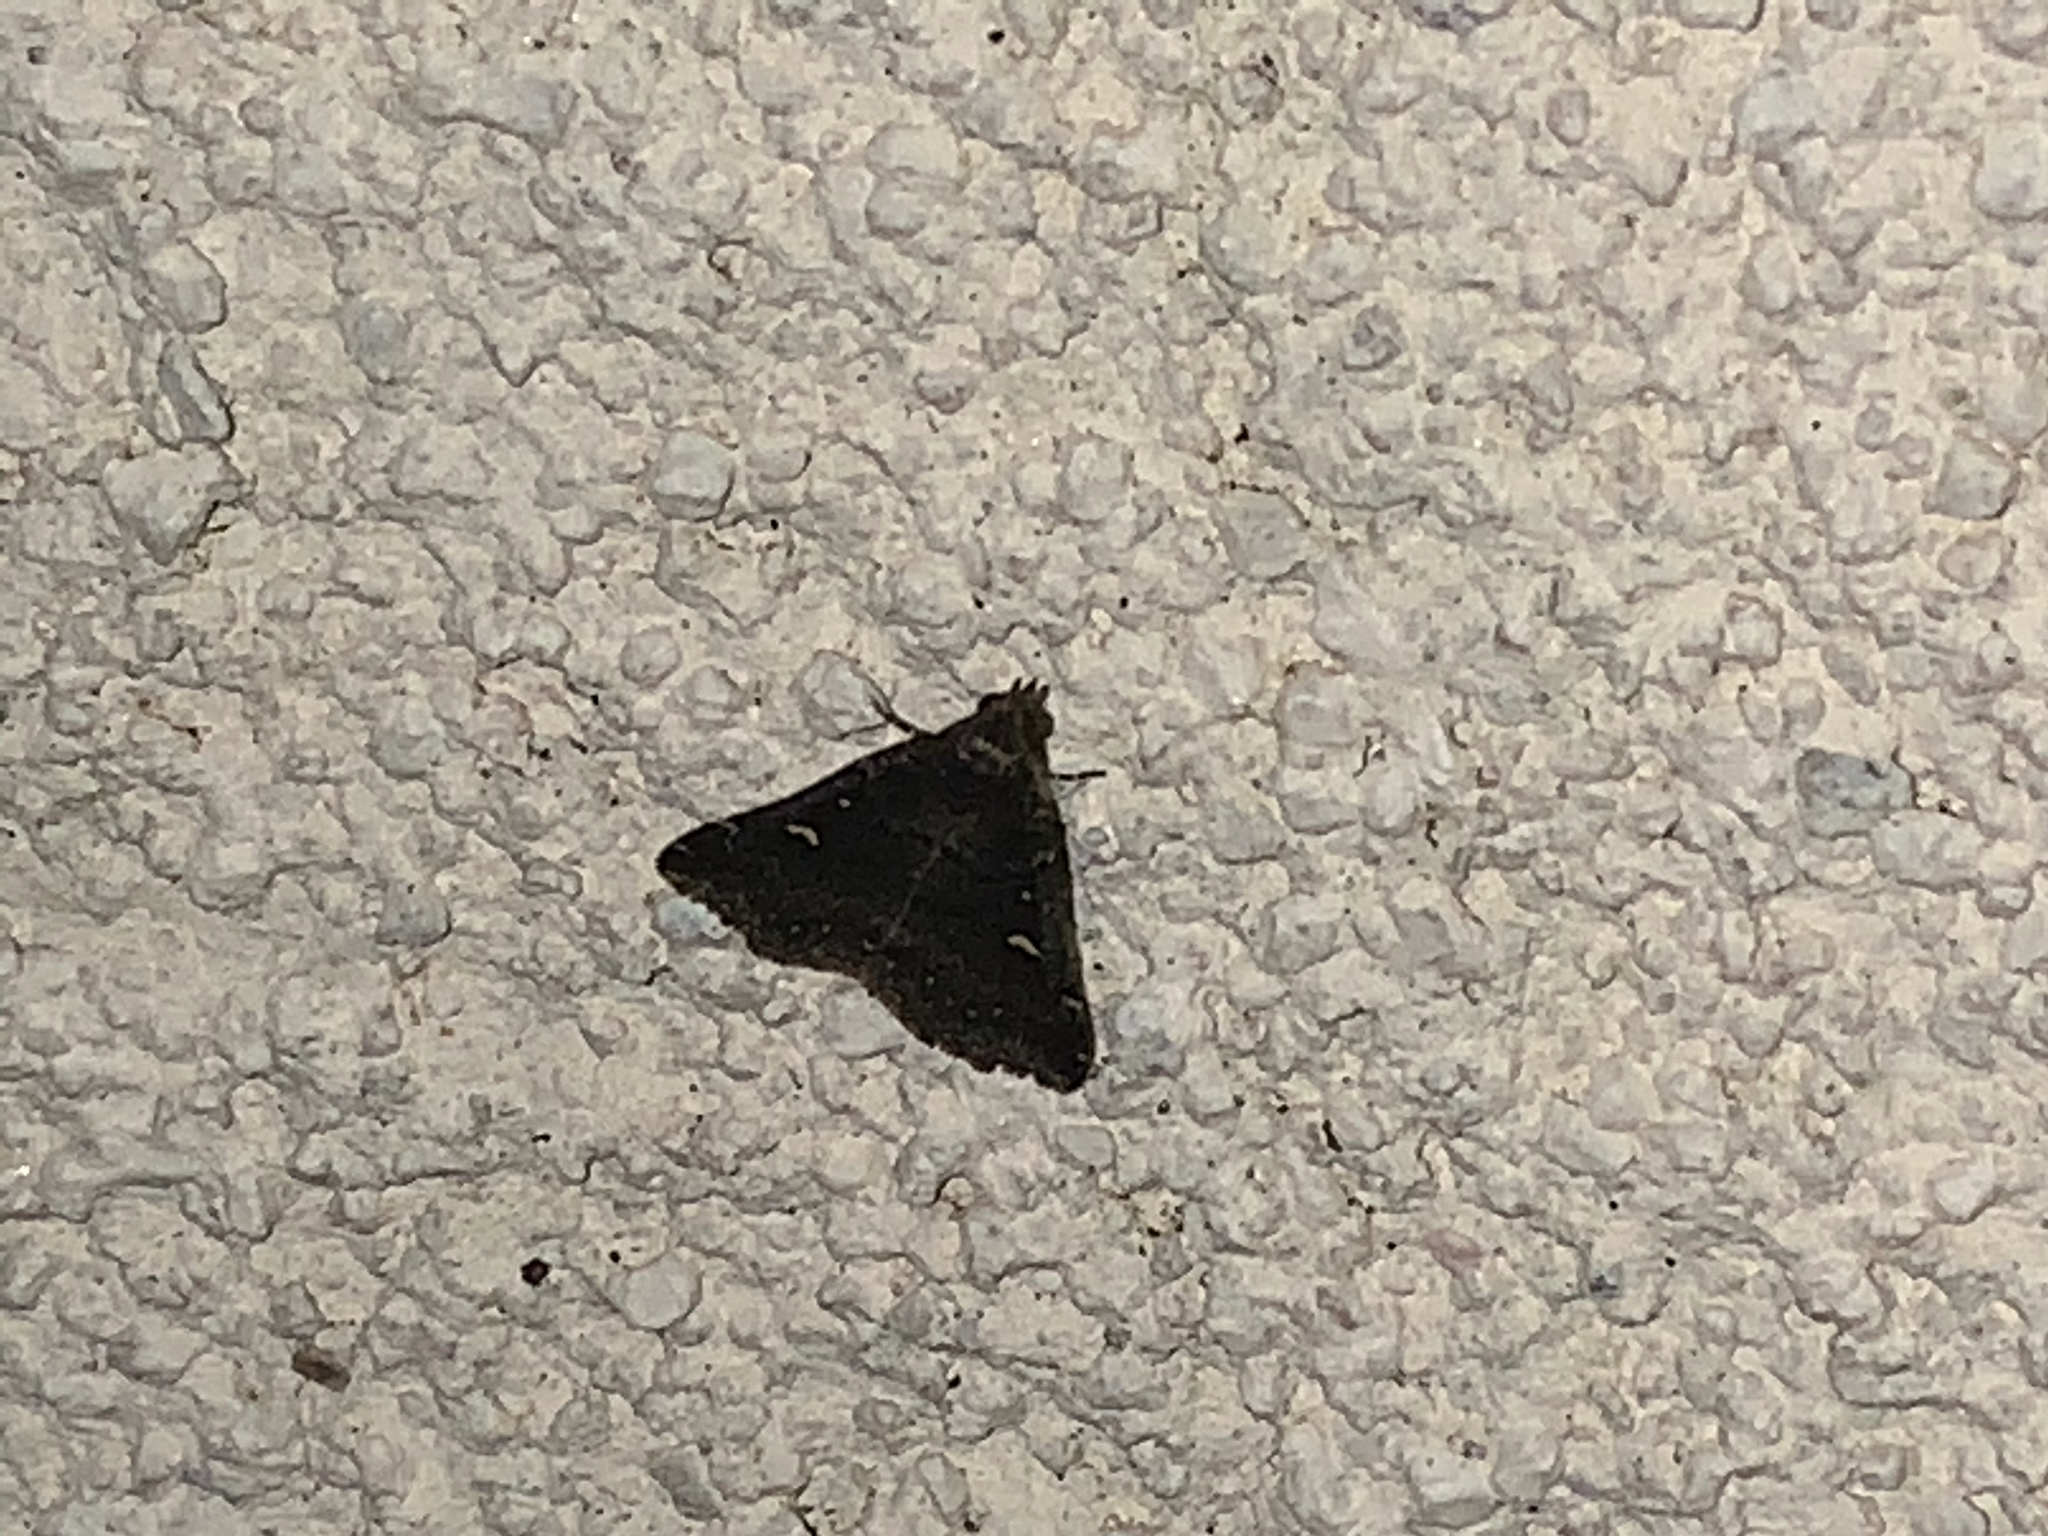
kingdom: Animalia
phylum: Arthropoda
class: Insecta
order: Lepidoptera
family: Erebidae
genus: Tetanolita
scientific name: Tetanolita mynesalis
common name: Smoky tetanolita moth
